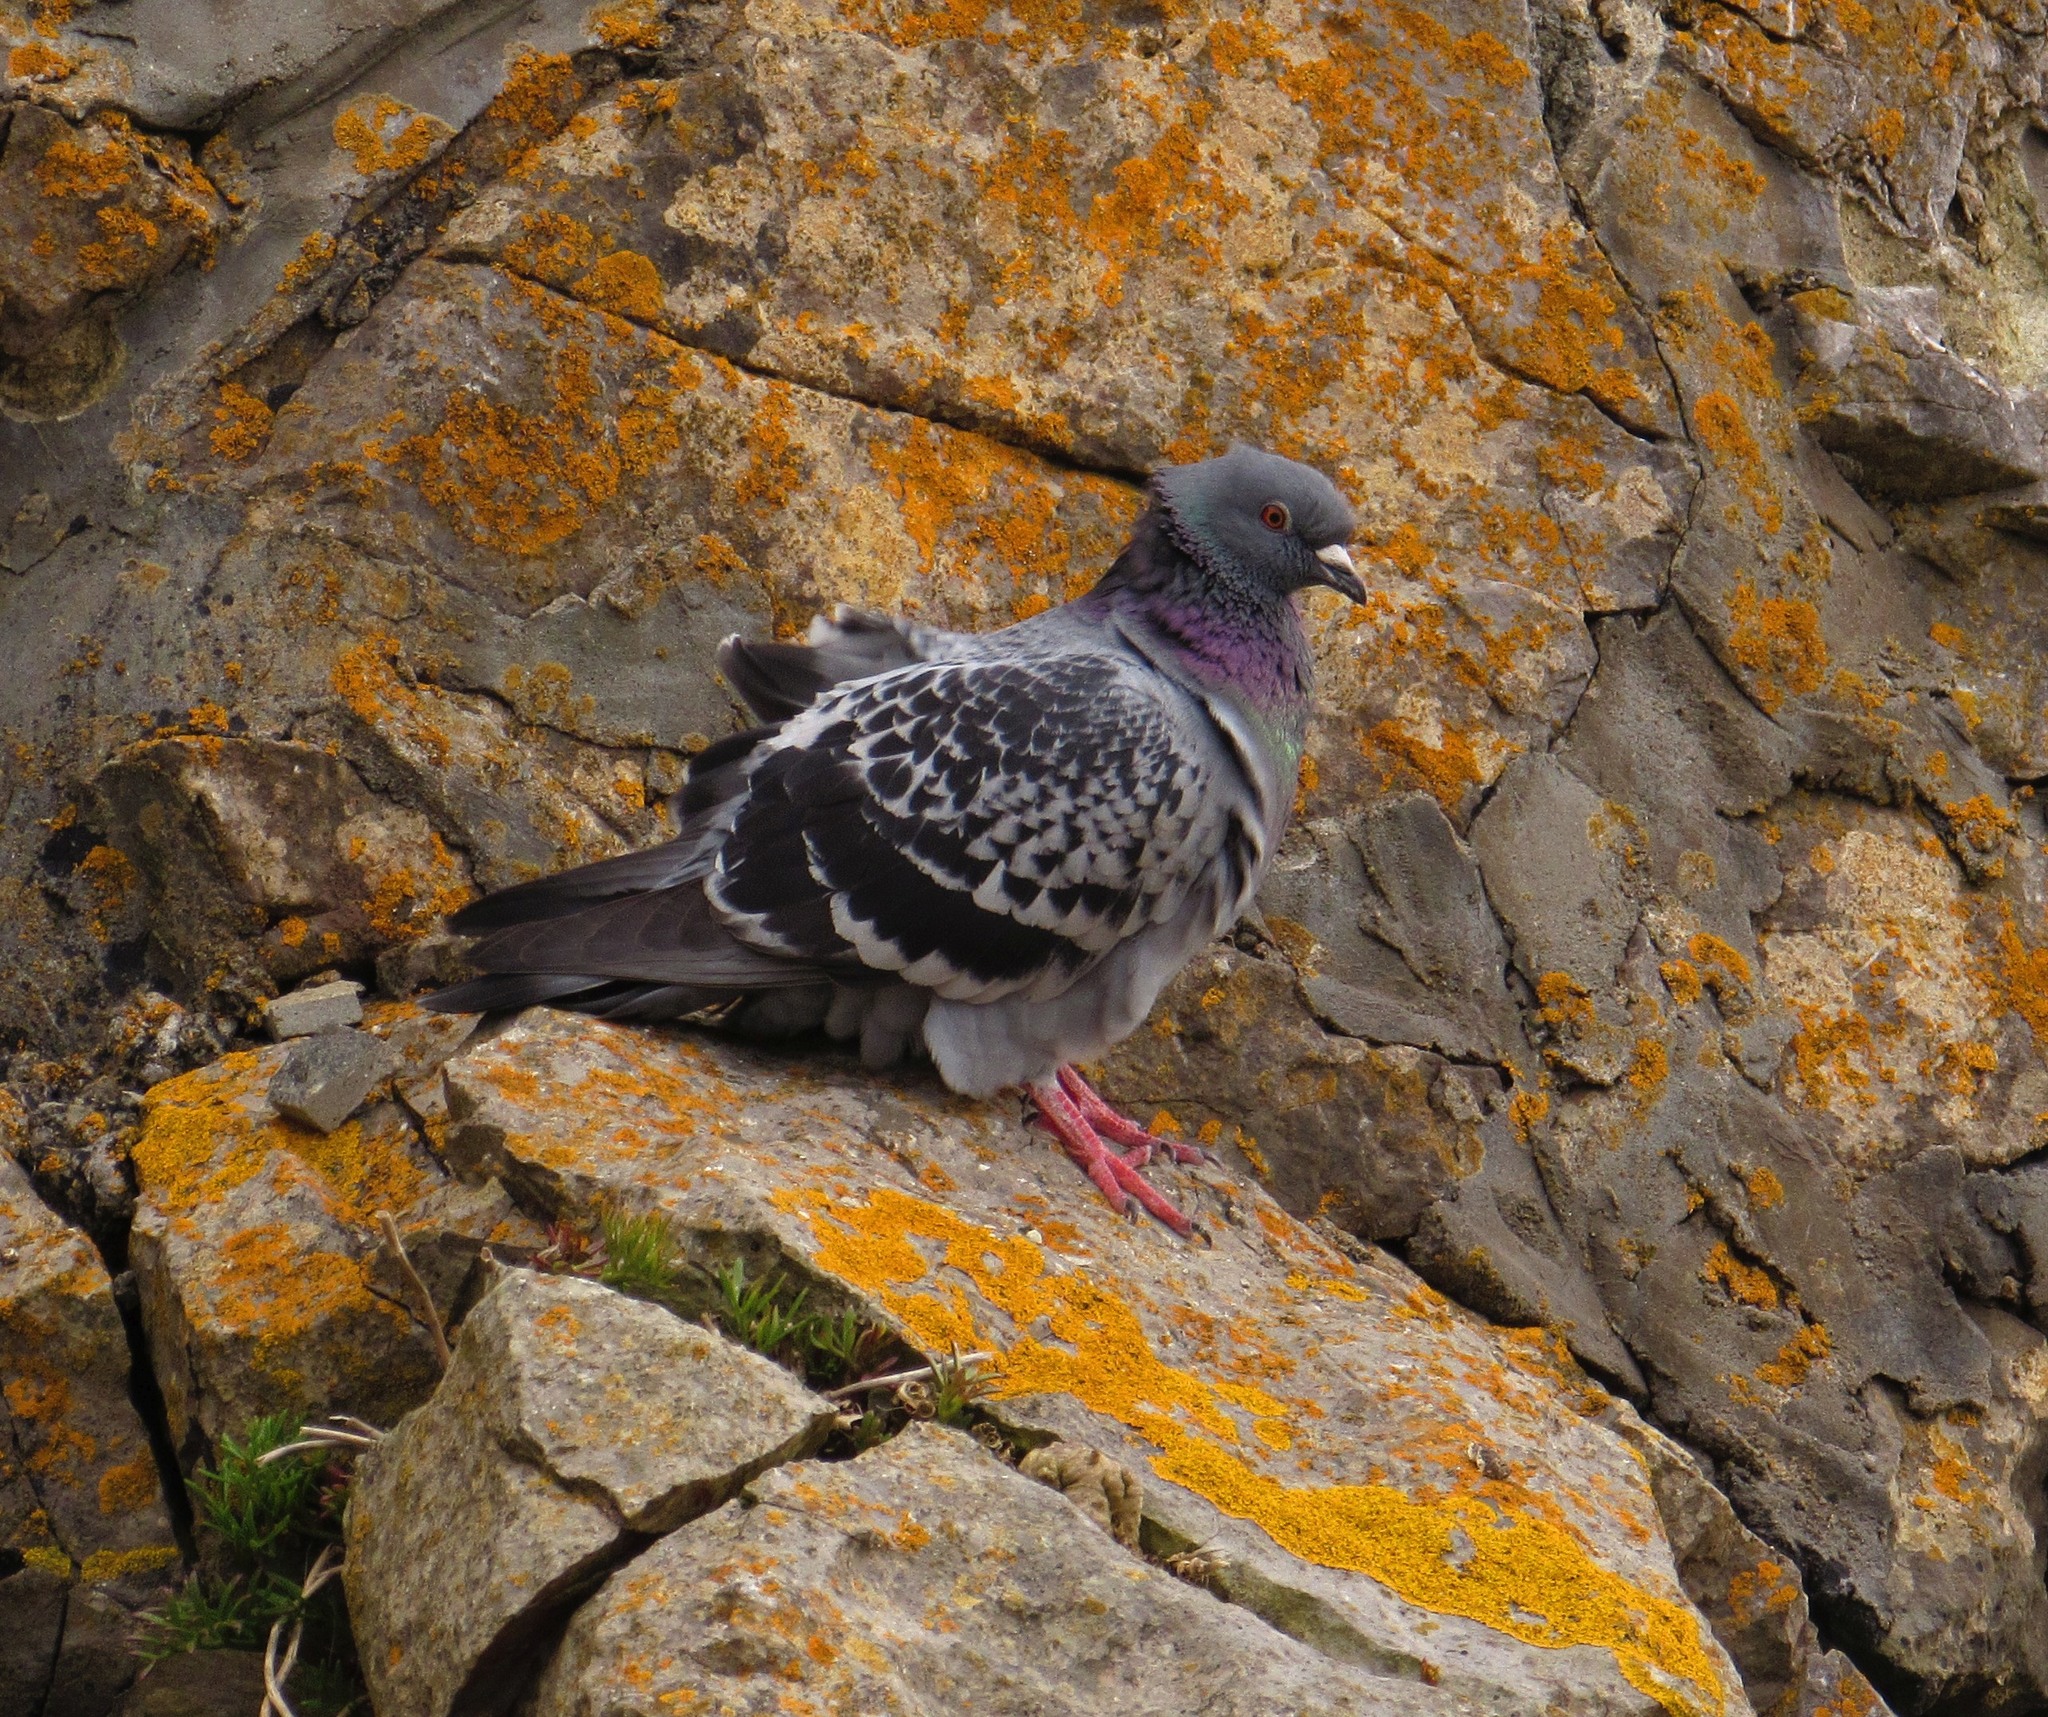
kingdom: Animalia
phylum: Chordata
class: Aves
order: Columbiformes
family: Columbidae
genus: Columba
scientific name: Columba livia
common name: Rock pigeon
